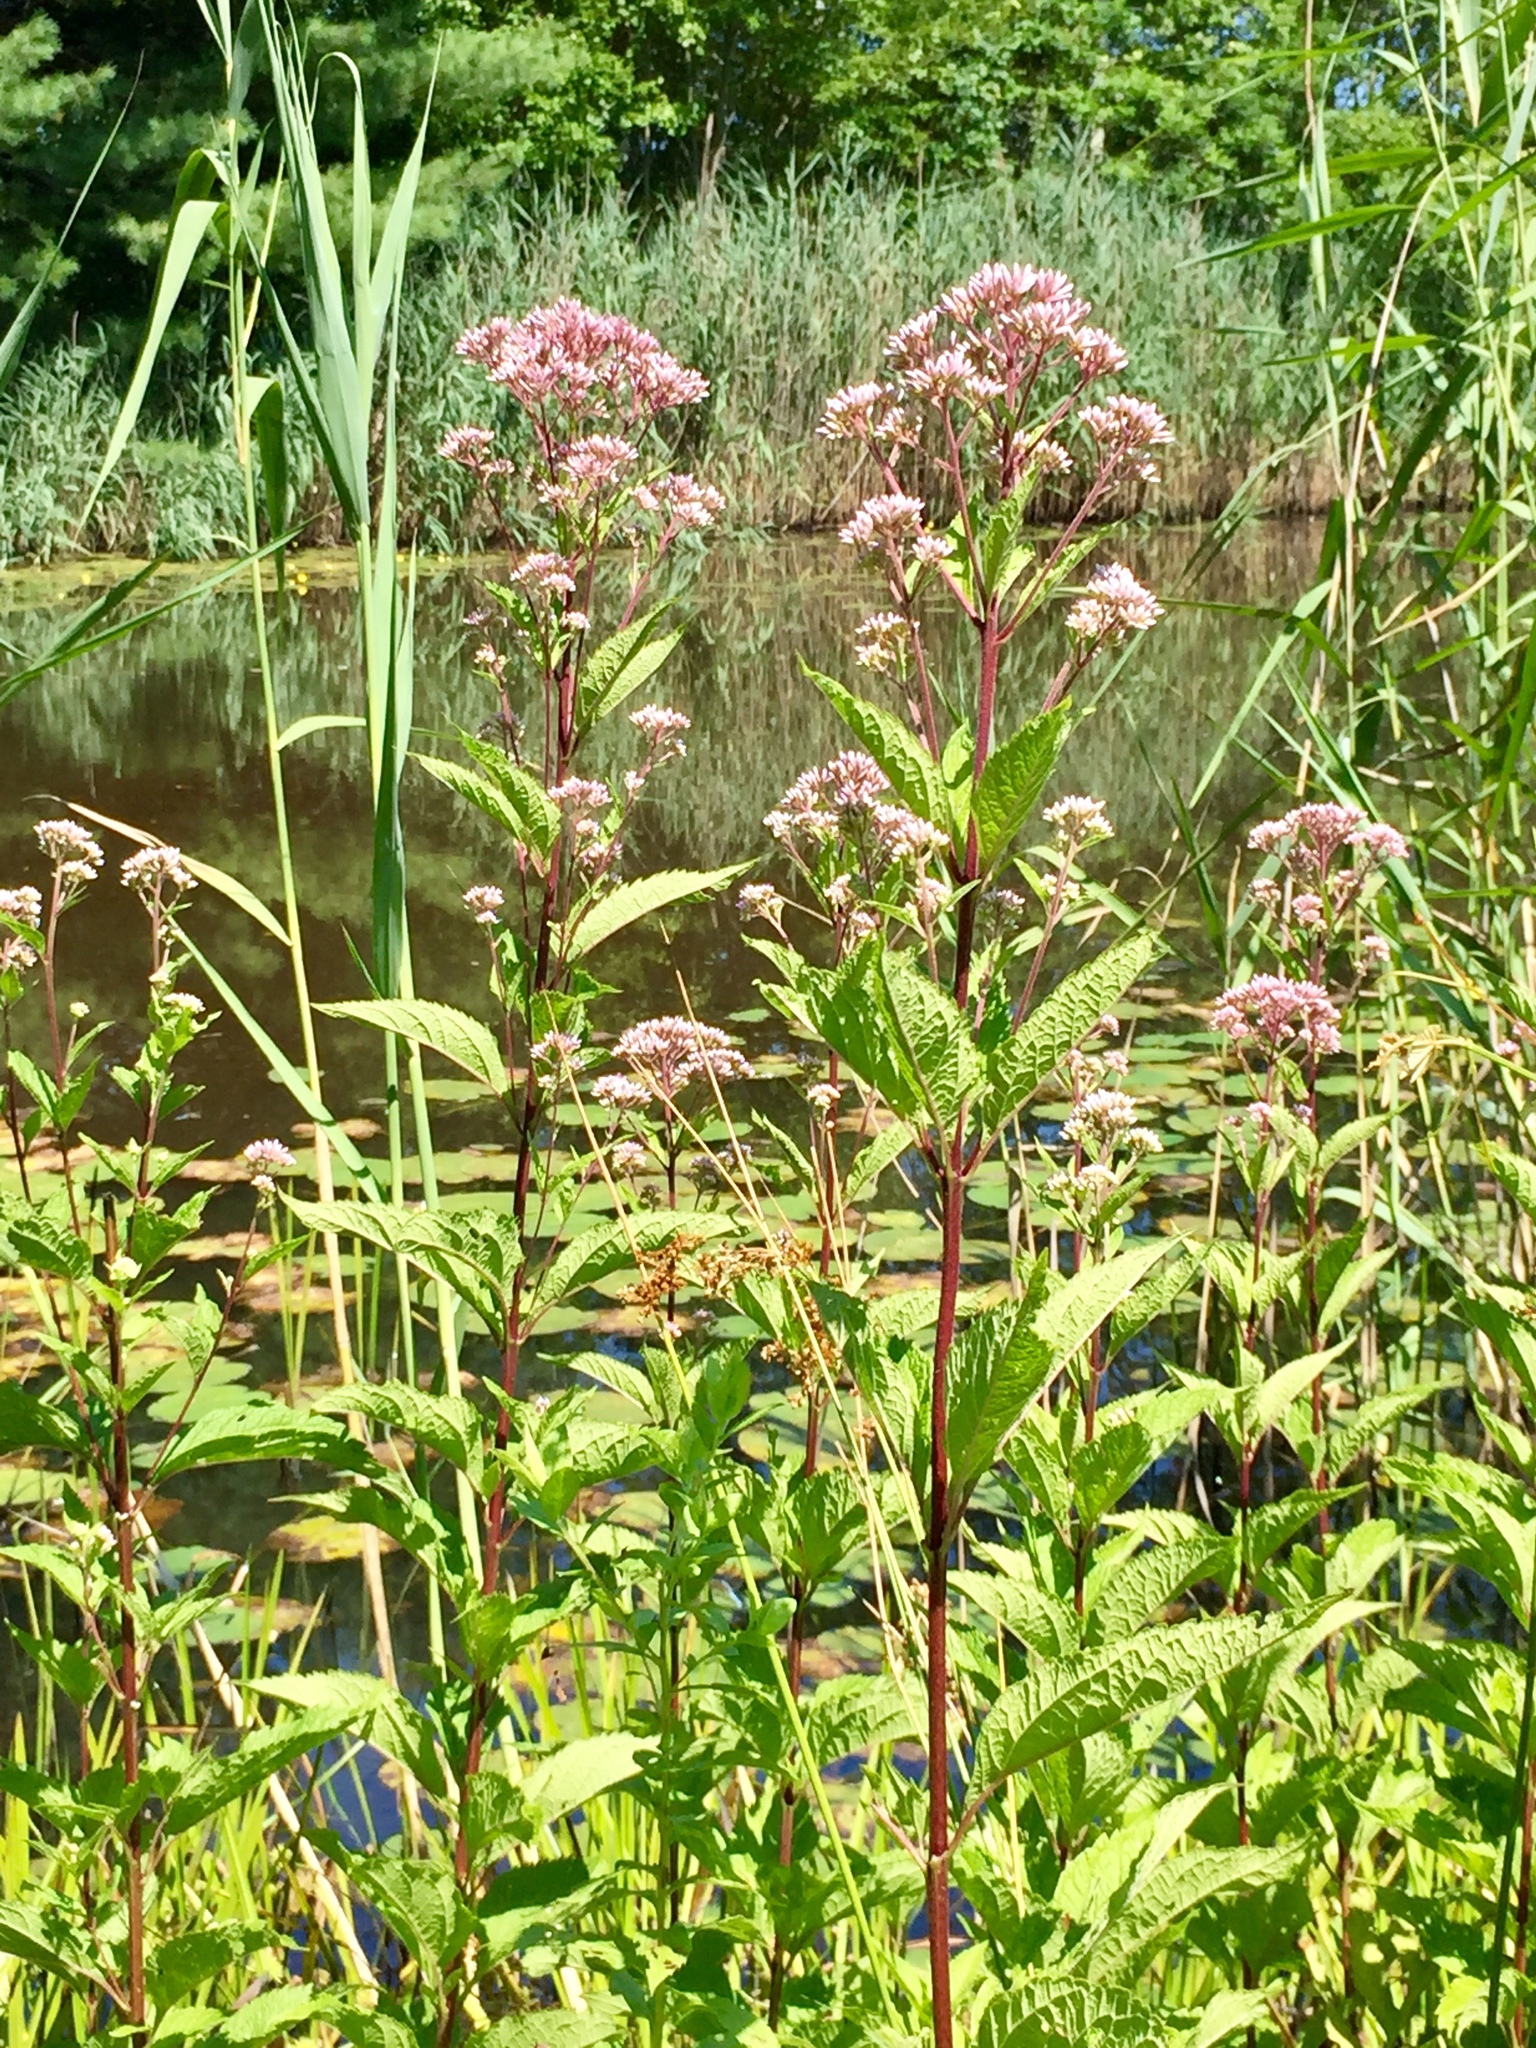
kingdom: Plantae
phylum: Tracheophyta
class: Magnoliopsida
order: Asterales
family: Asteraceae
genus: Eutrochium
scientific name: Eutrochium maculatum
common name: Spotted joe pye weed
